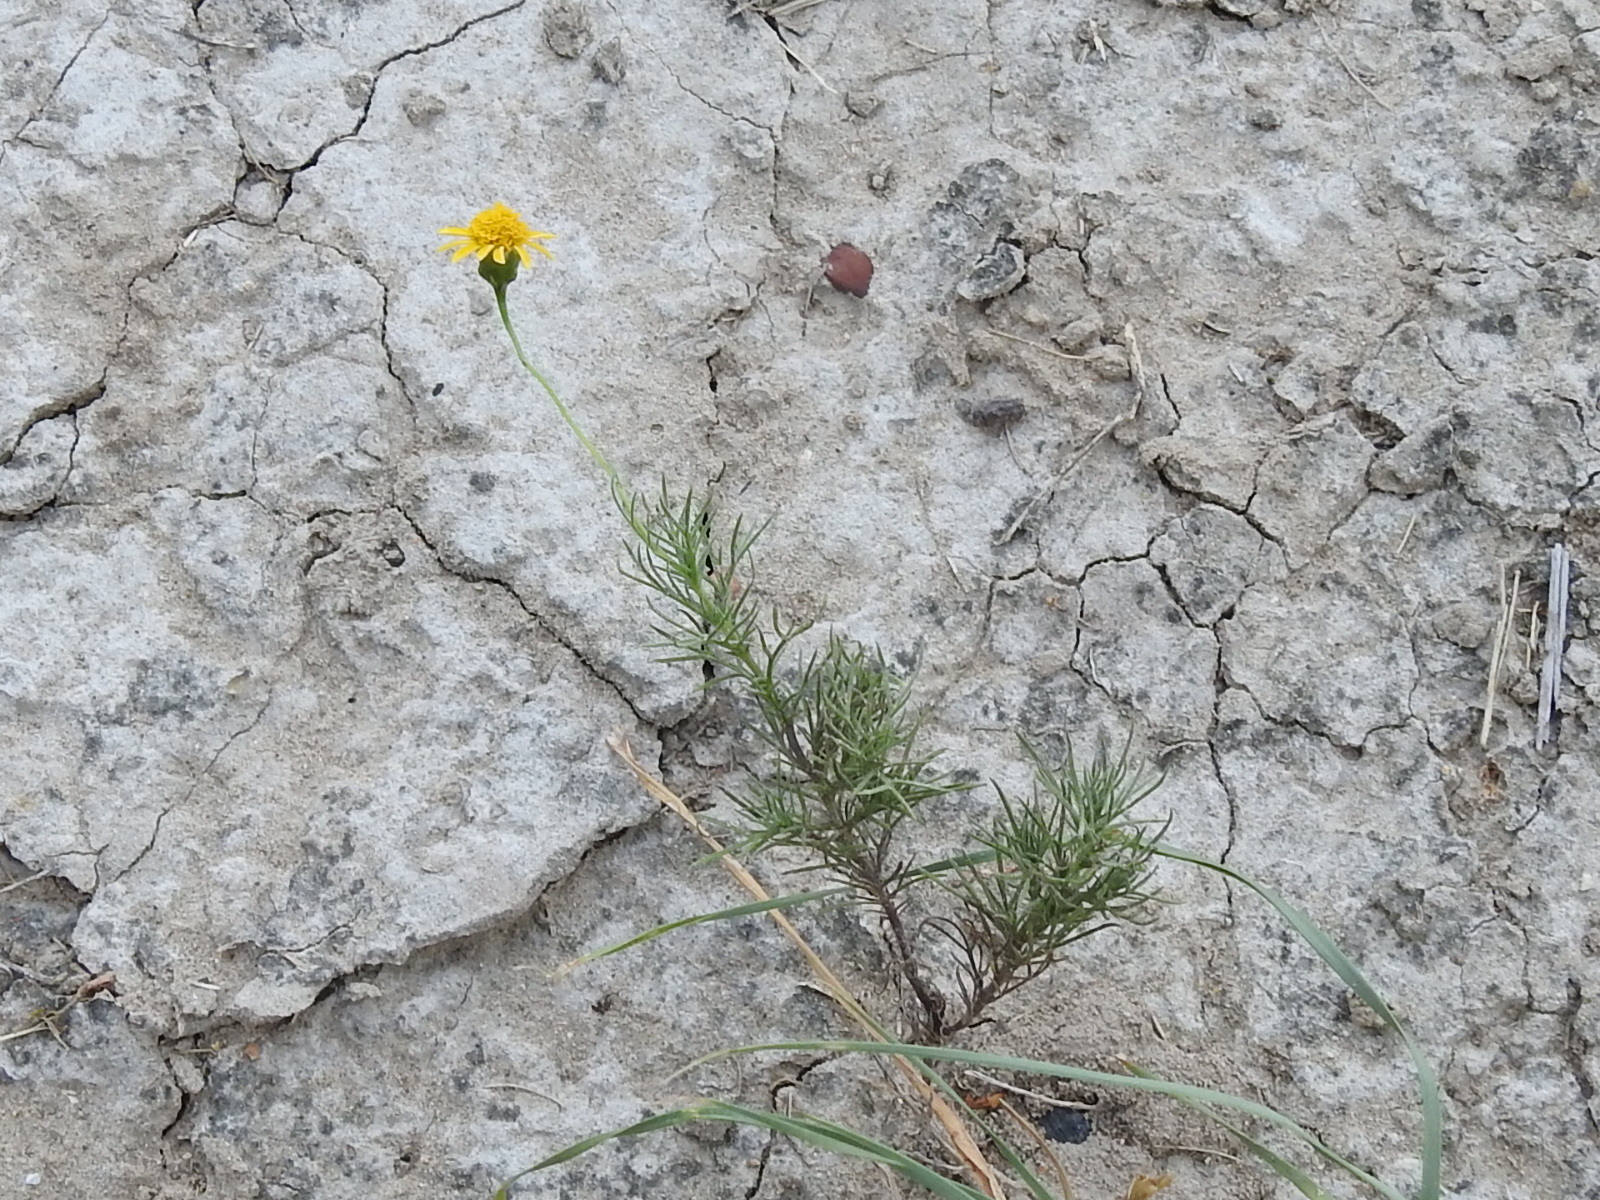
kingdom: Plantae
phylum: Tracheophyta
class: Magnoliopsida
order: Asterales
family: Asteraceae
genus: Thymophylla
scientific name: Thymophylla pentachaeta
